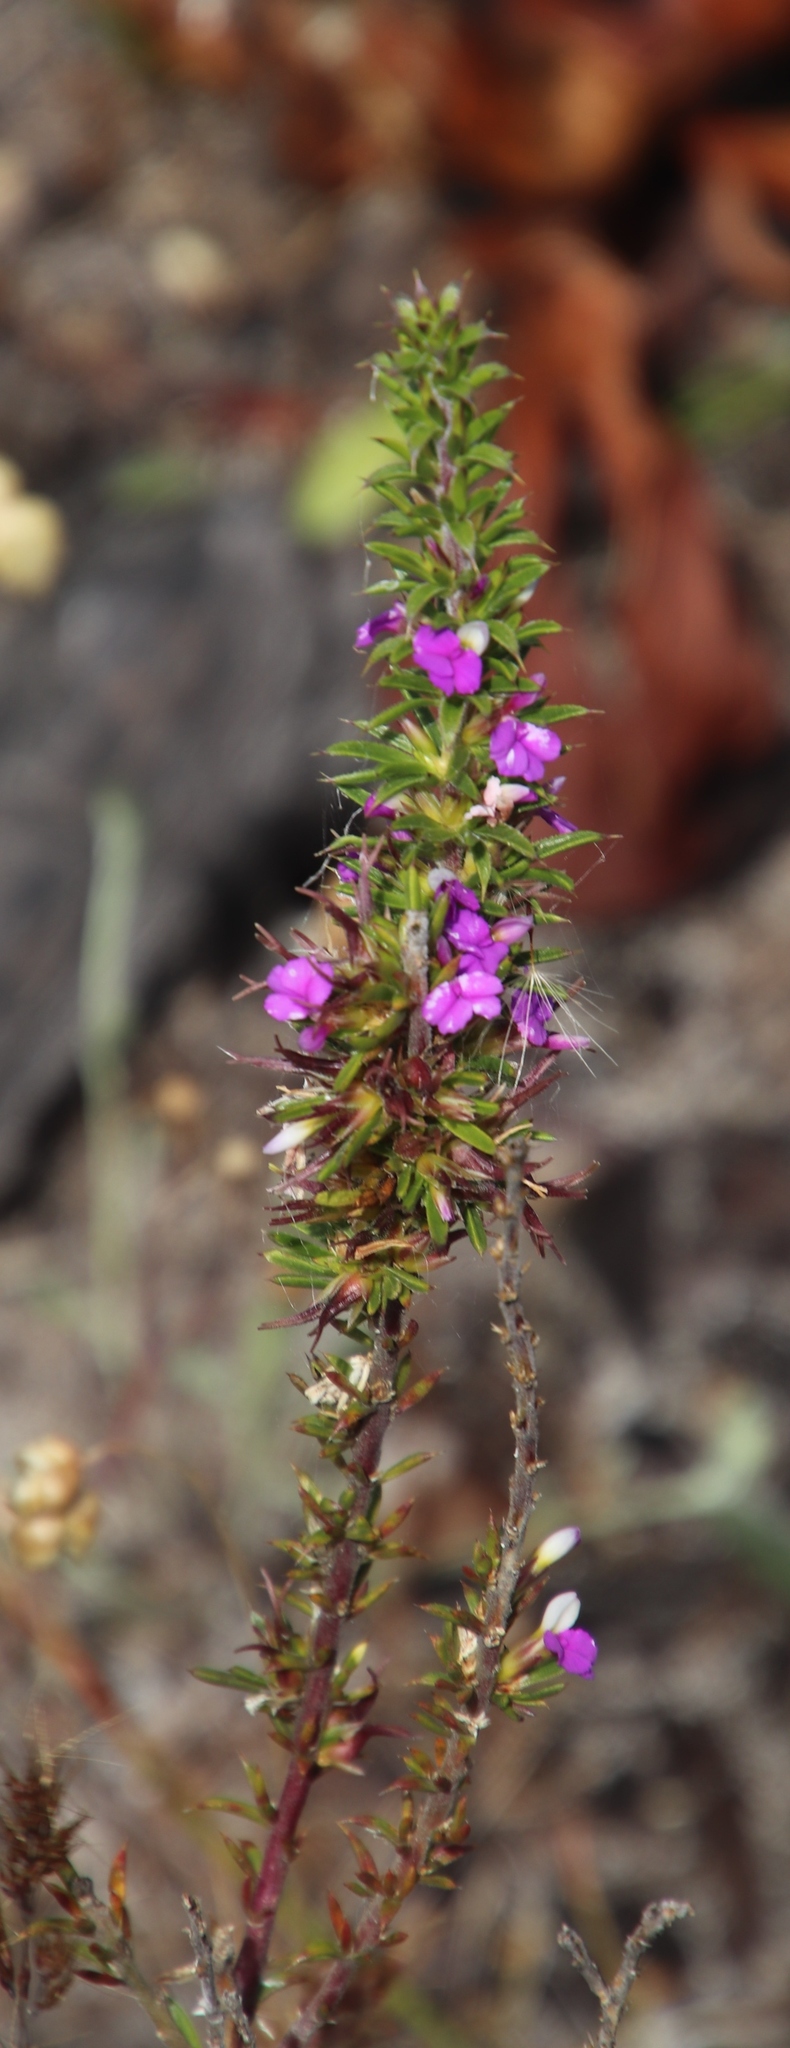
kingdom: Plantae
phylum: Tracheophyta
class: Magnoliopsida
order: Fabales
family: Polygalaceae
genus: Muraltia
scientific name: Muraltia heisteria
